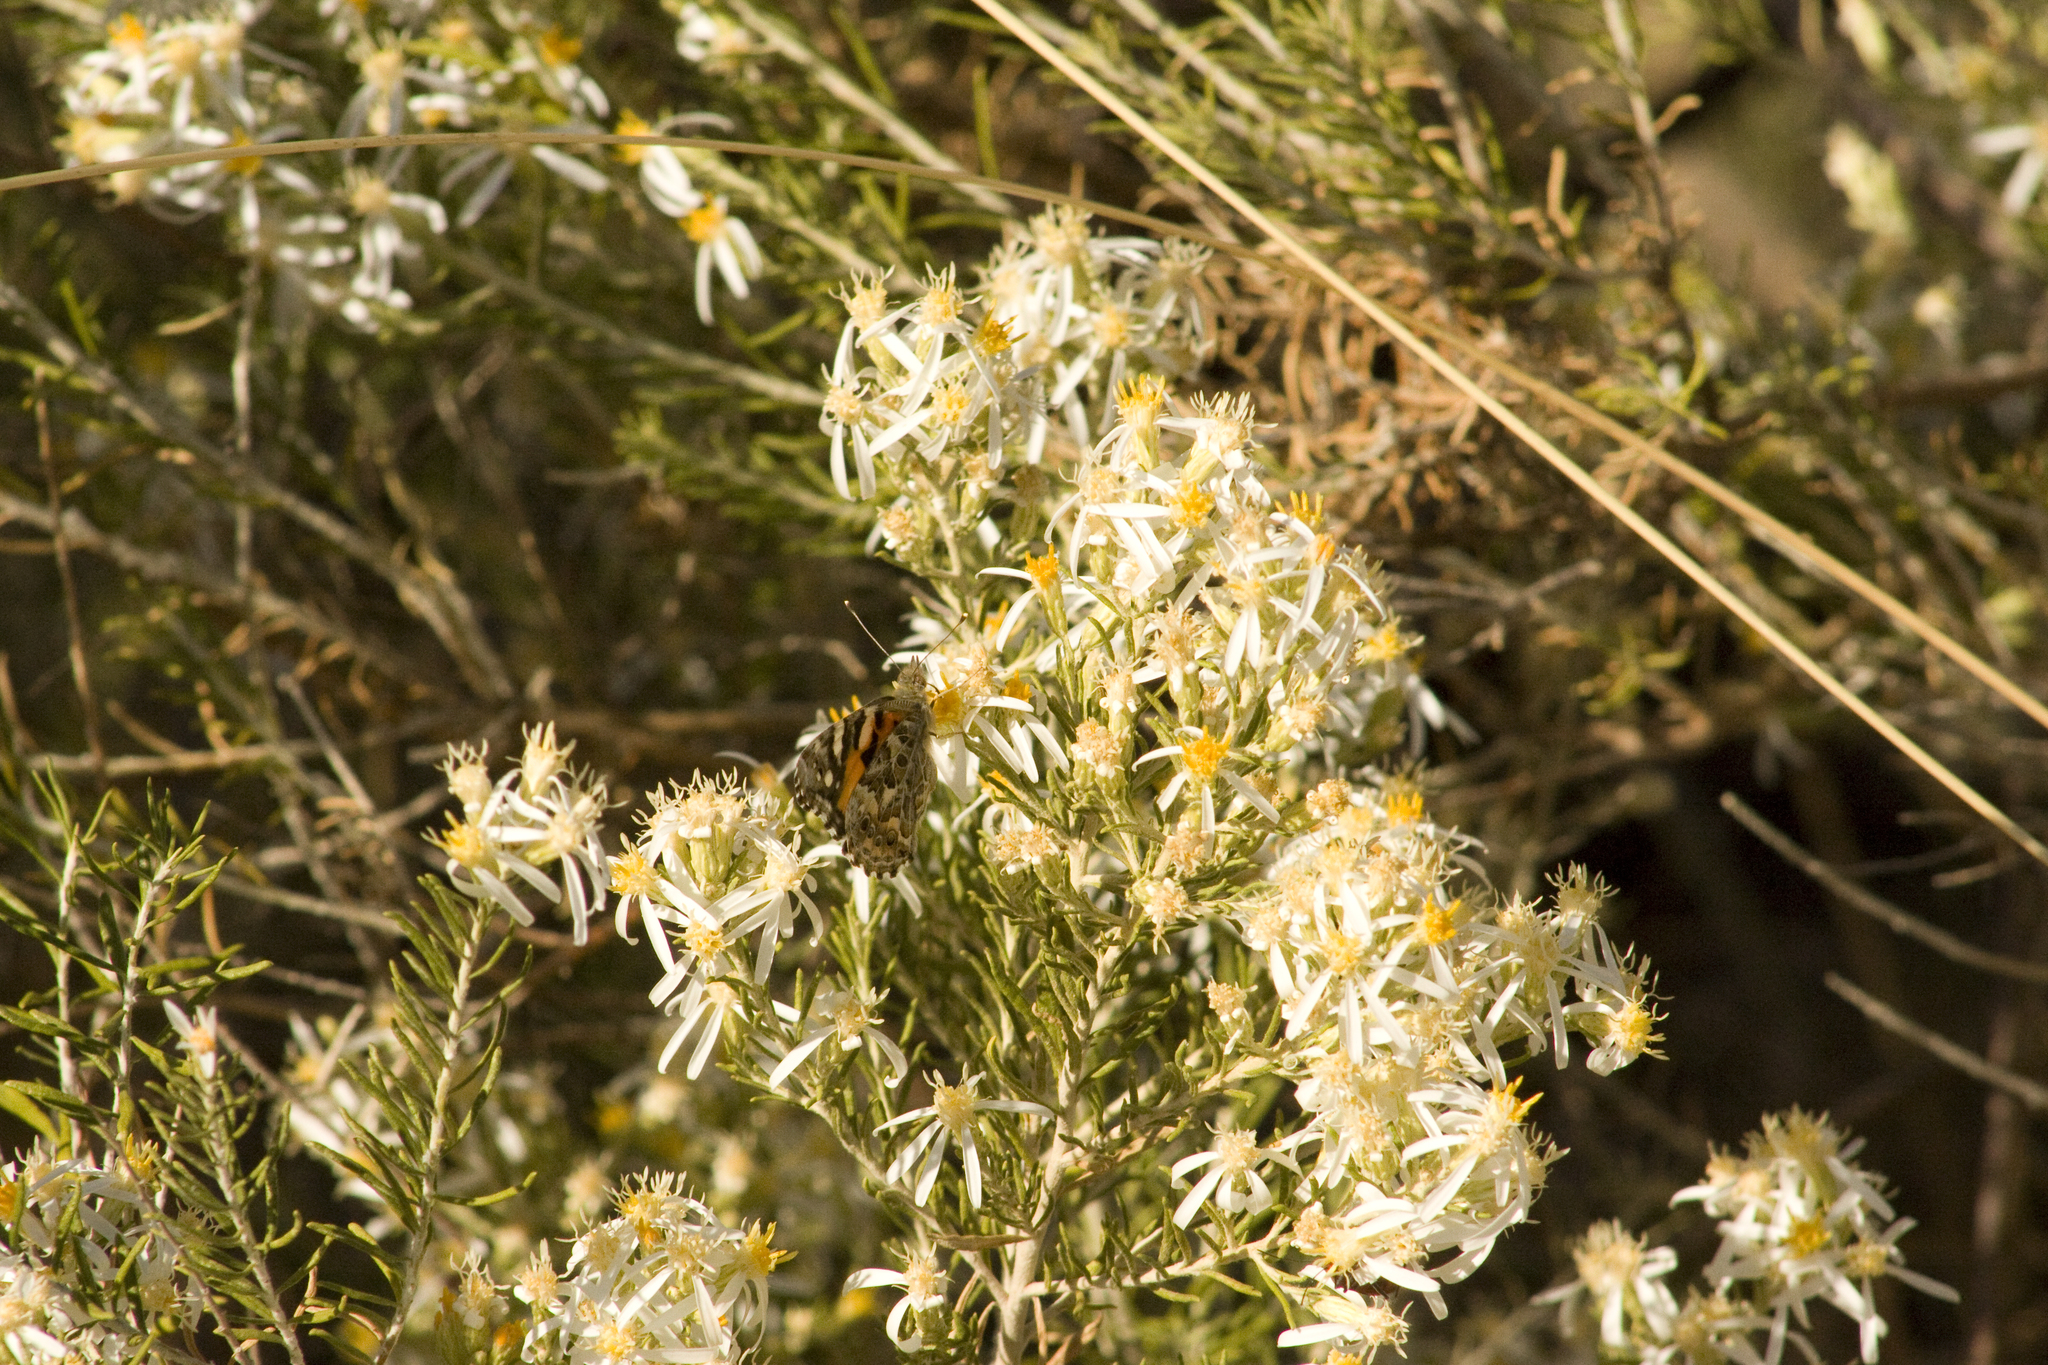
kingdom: Plantae
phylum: Tracheophyta
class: Magnoliopsida
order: Asterales
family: Asteraceae
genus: Olearia
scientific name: Olearia subspicata
